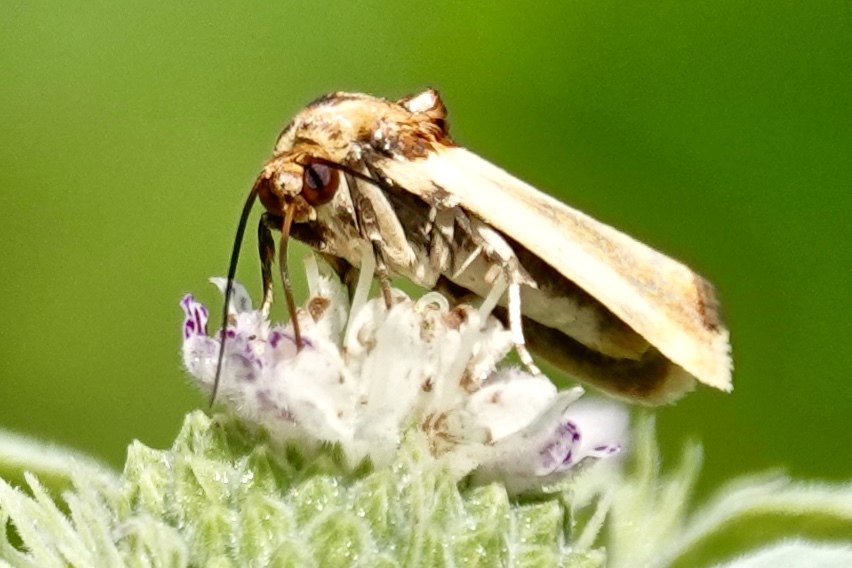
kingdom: Animalia
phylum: Arthropoda
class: Insecta
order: Lepidoptera
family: Noctuidae
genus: Spragueia
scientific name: Spragueia apicalis
